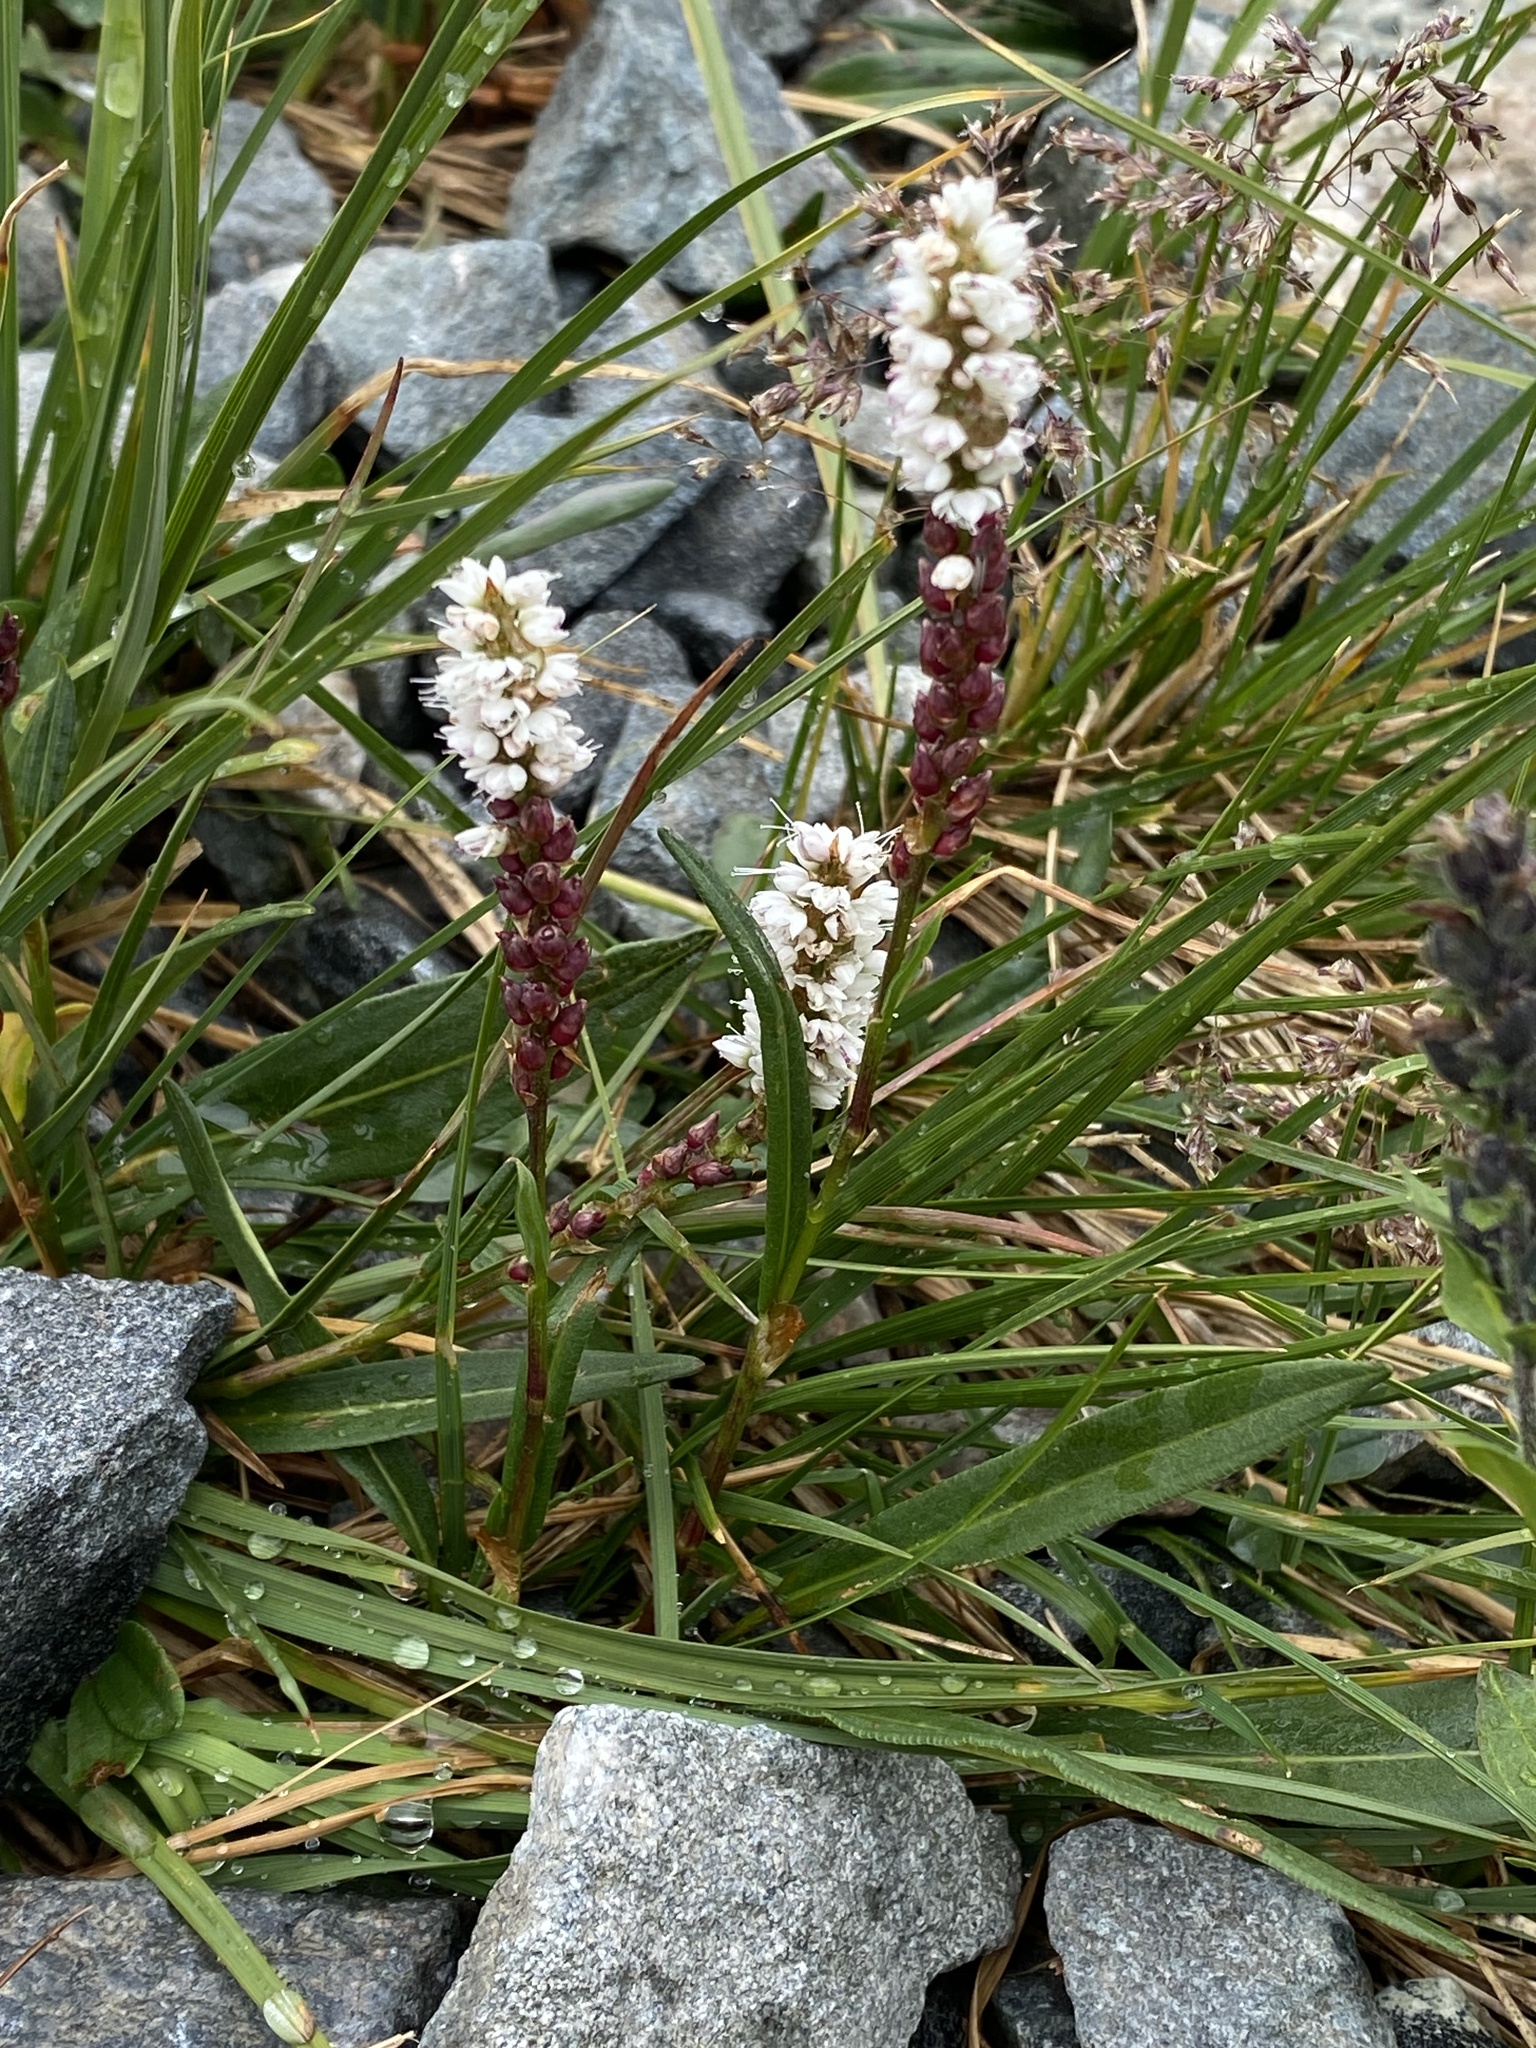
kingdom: Plantae
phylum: Tracheophyta
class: Magnoliopsida
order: Caryophyllales
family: Polygonaceae
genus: Bistorta
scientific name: Bistorta vivipara
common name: Alpine bistort
